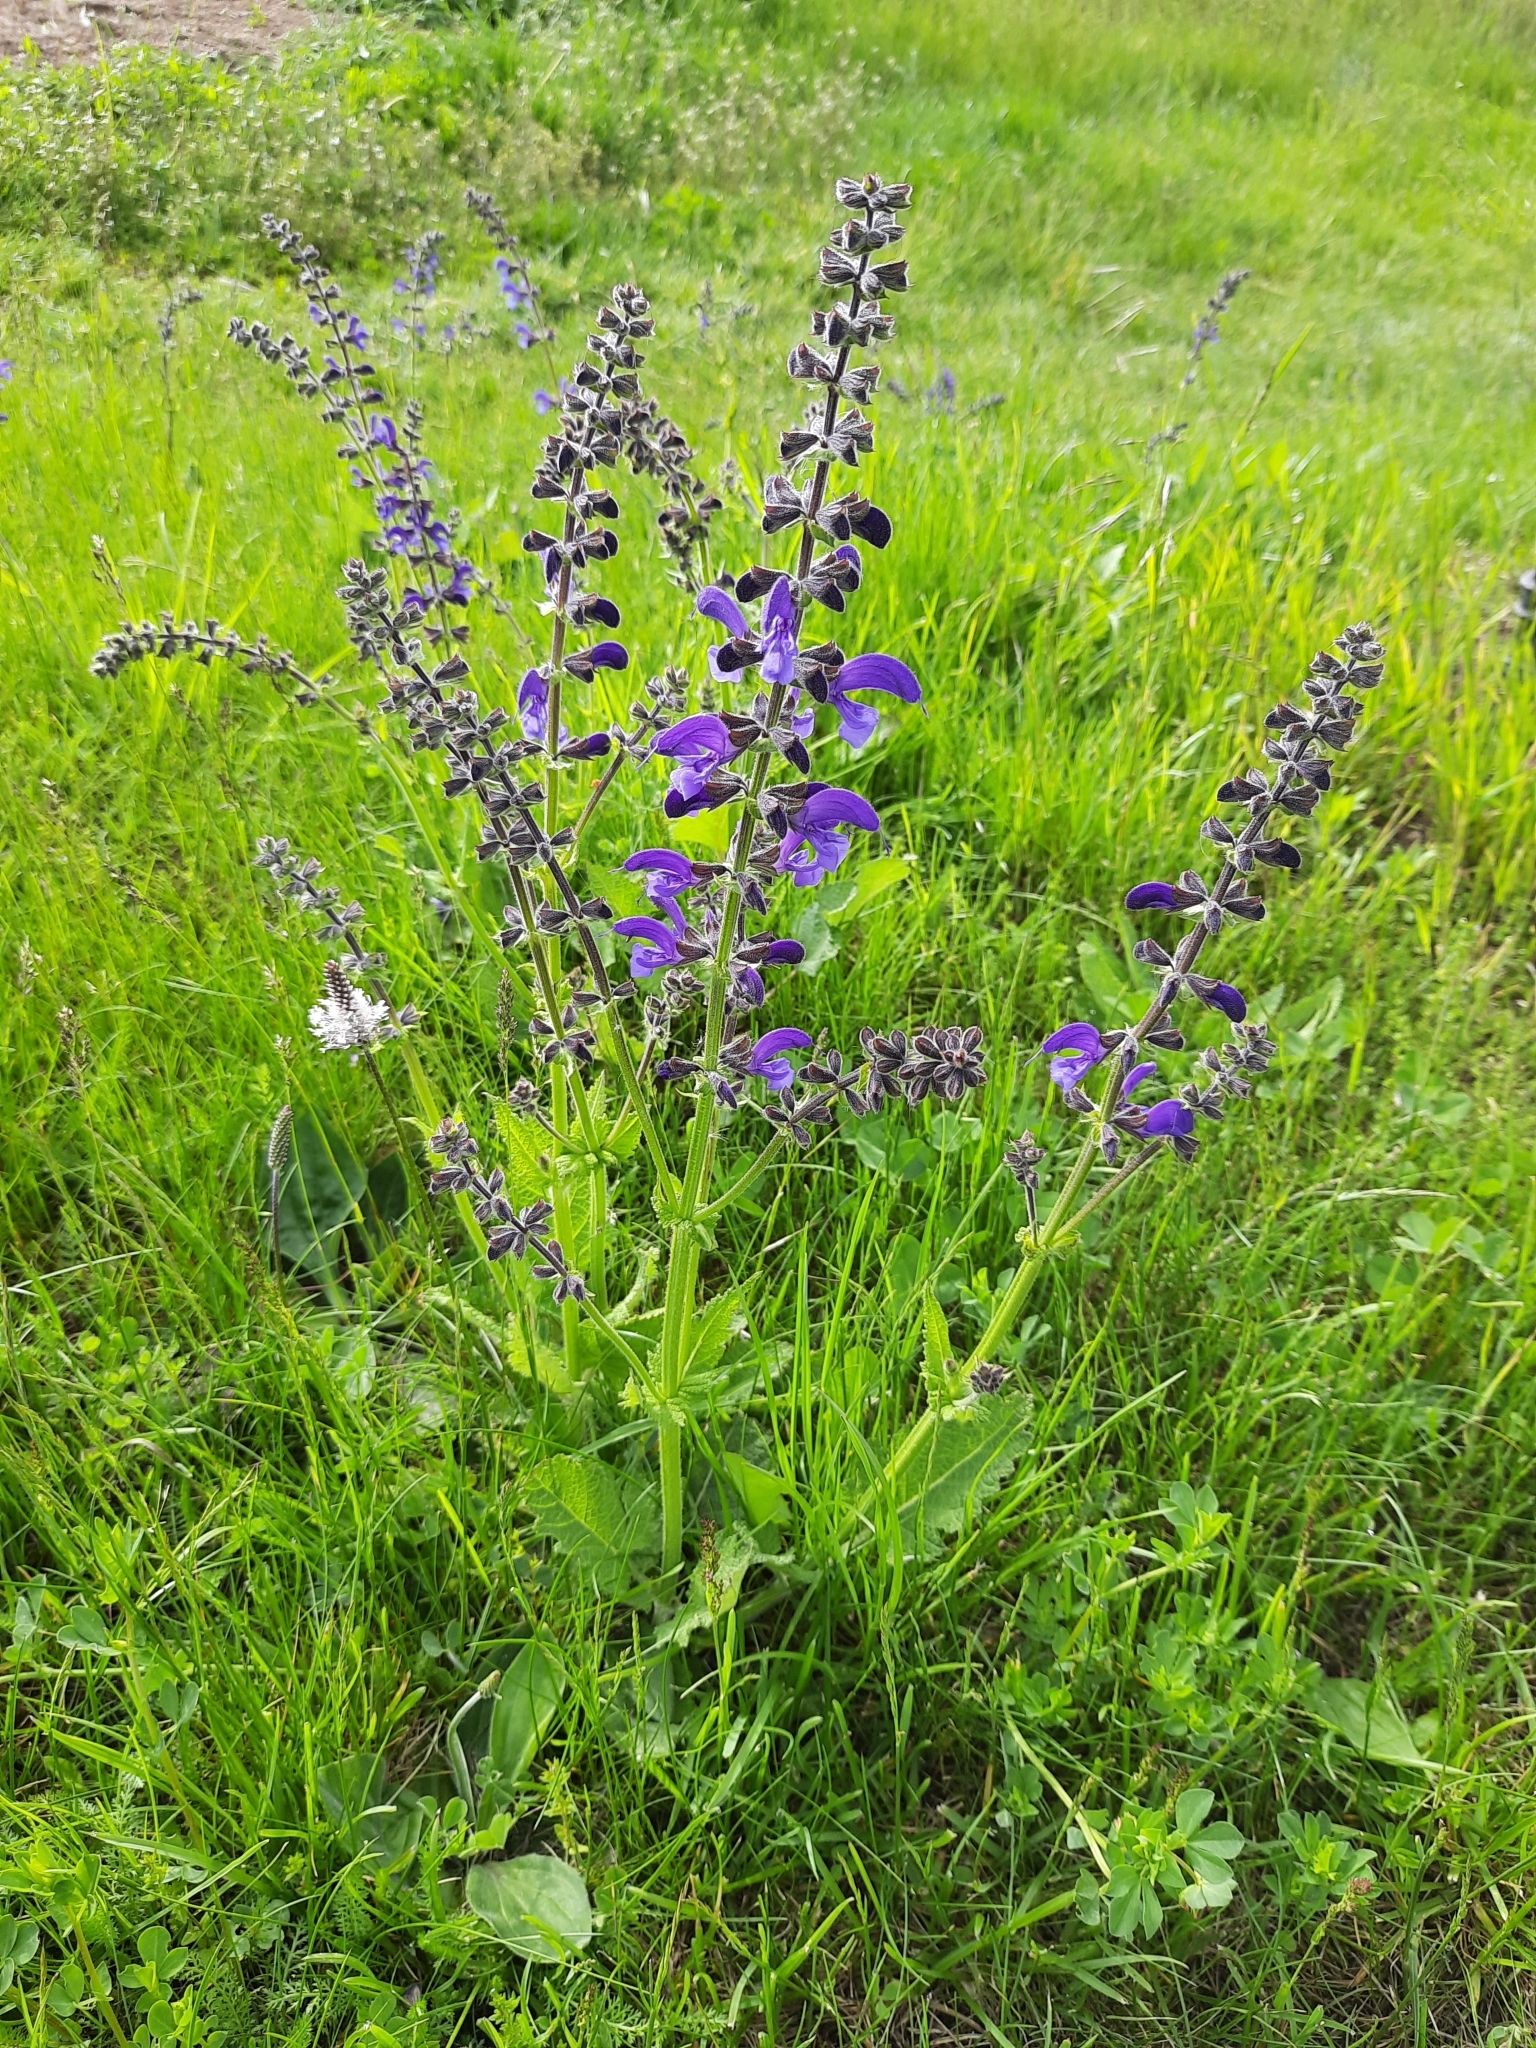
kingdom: Plantae
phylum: Tracheophyta
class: Magnoliopsida
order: Lamiales
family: Lamiaceae
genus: Salvia
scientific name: Salvia pratensis
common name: Meadow sage
